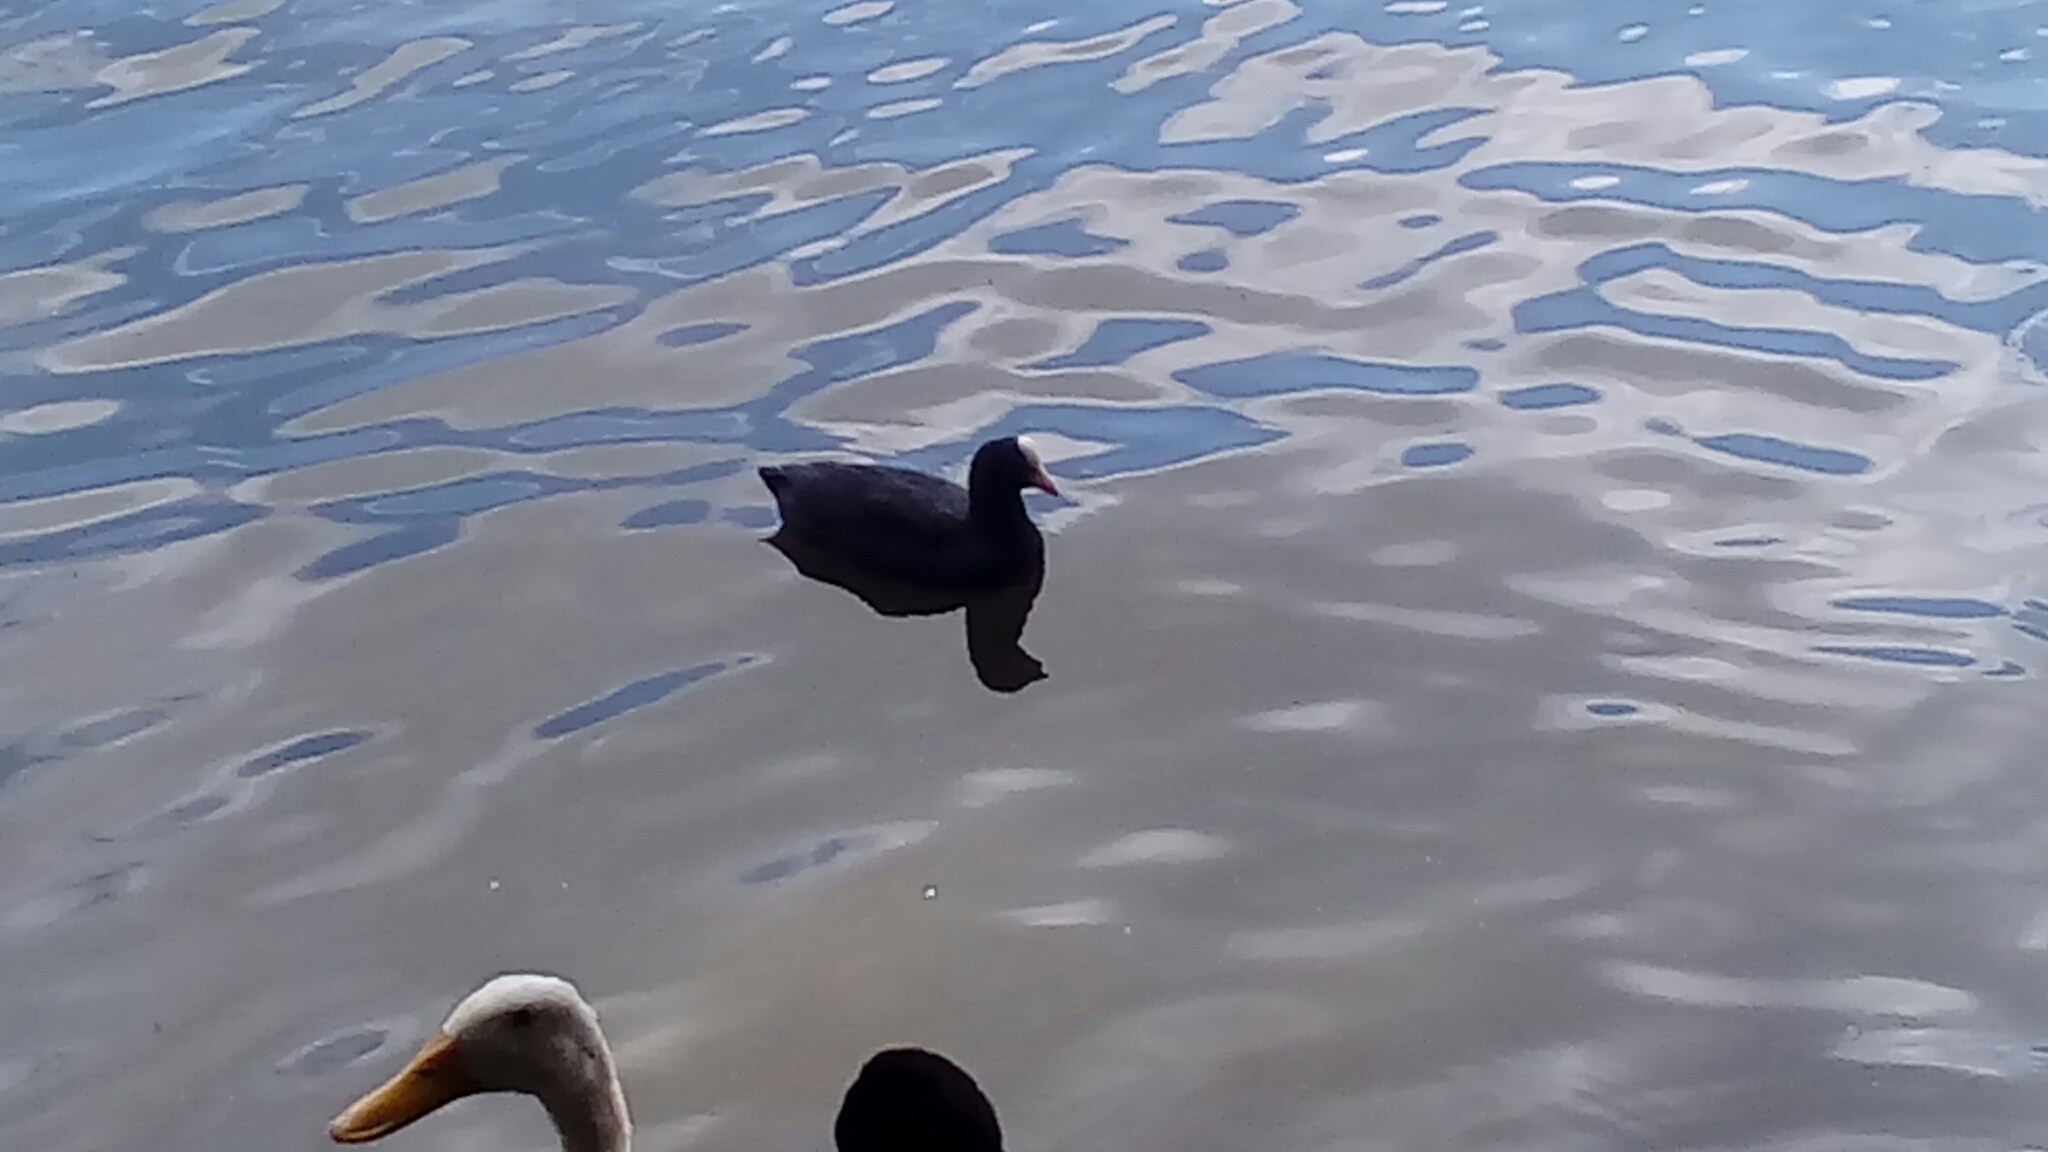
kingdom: Animalia
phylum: Chordata
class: Aves
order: Gruiformes
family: Rallidae
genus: Fulica
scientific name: Fulica atra
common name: Eurasian coot
